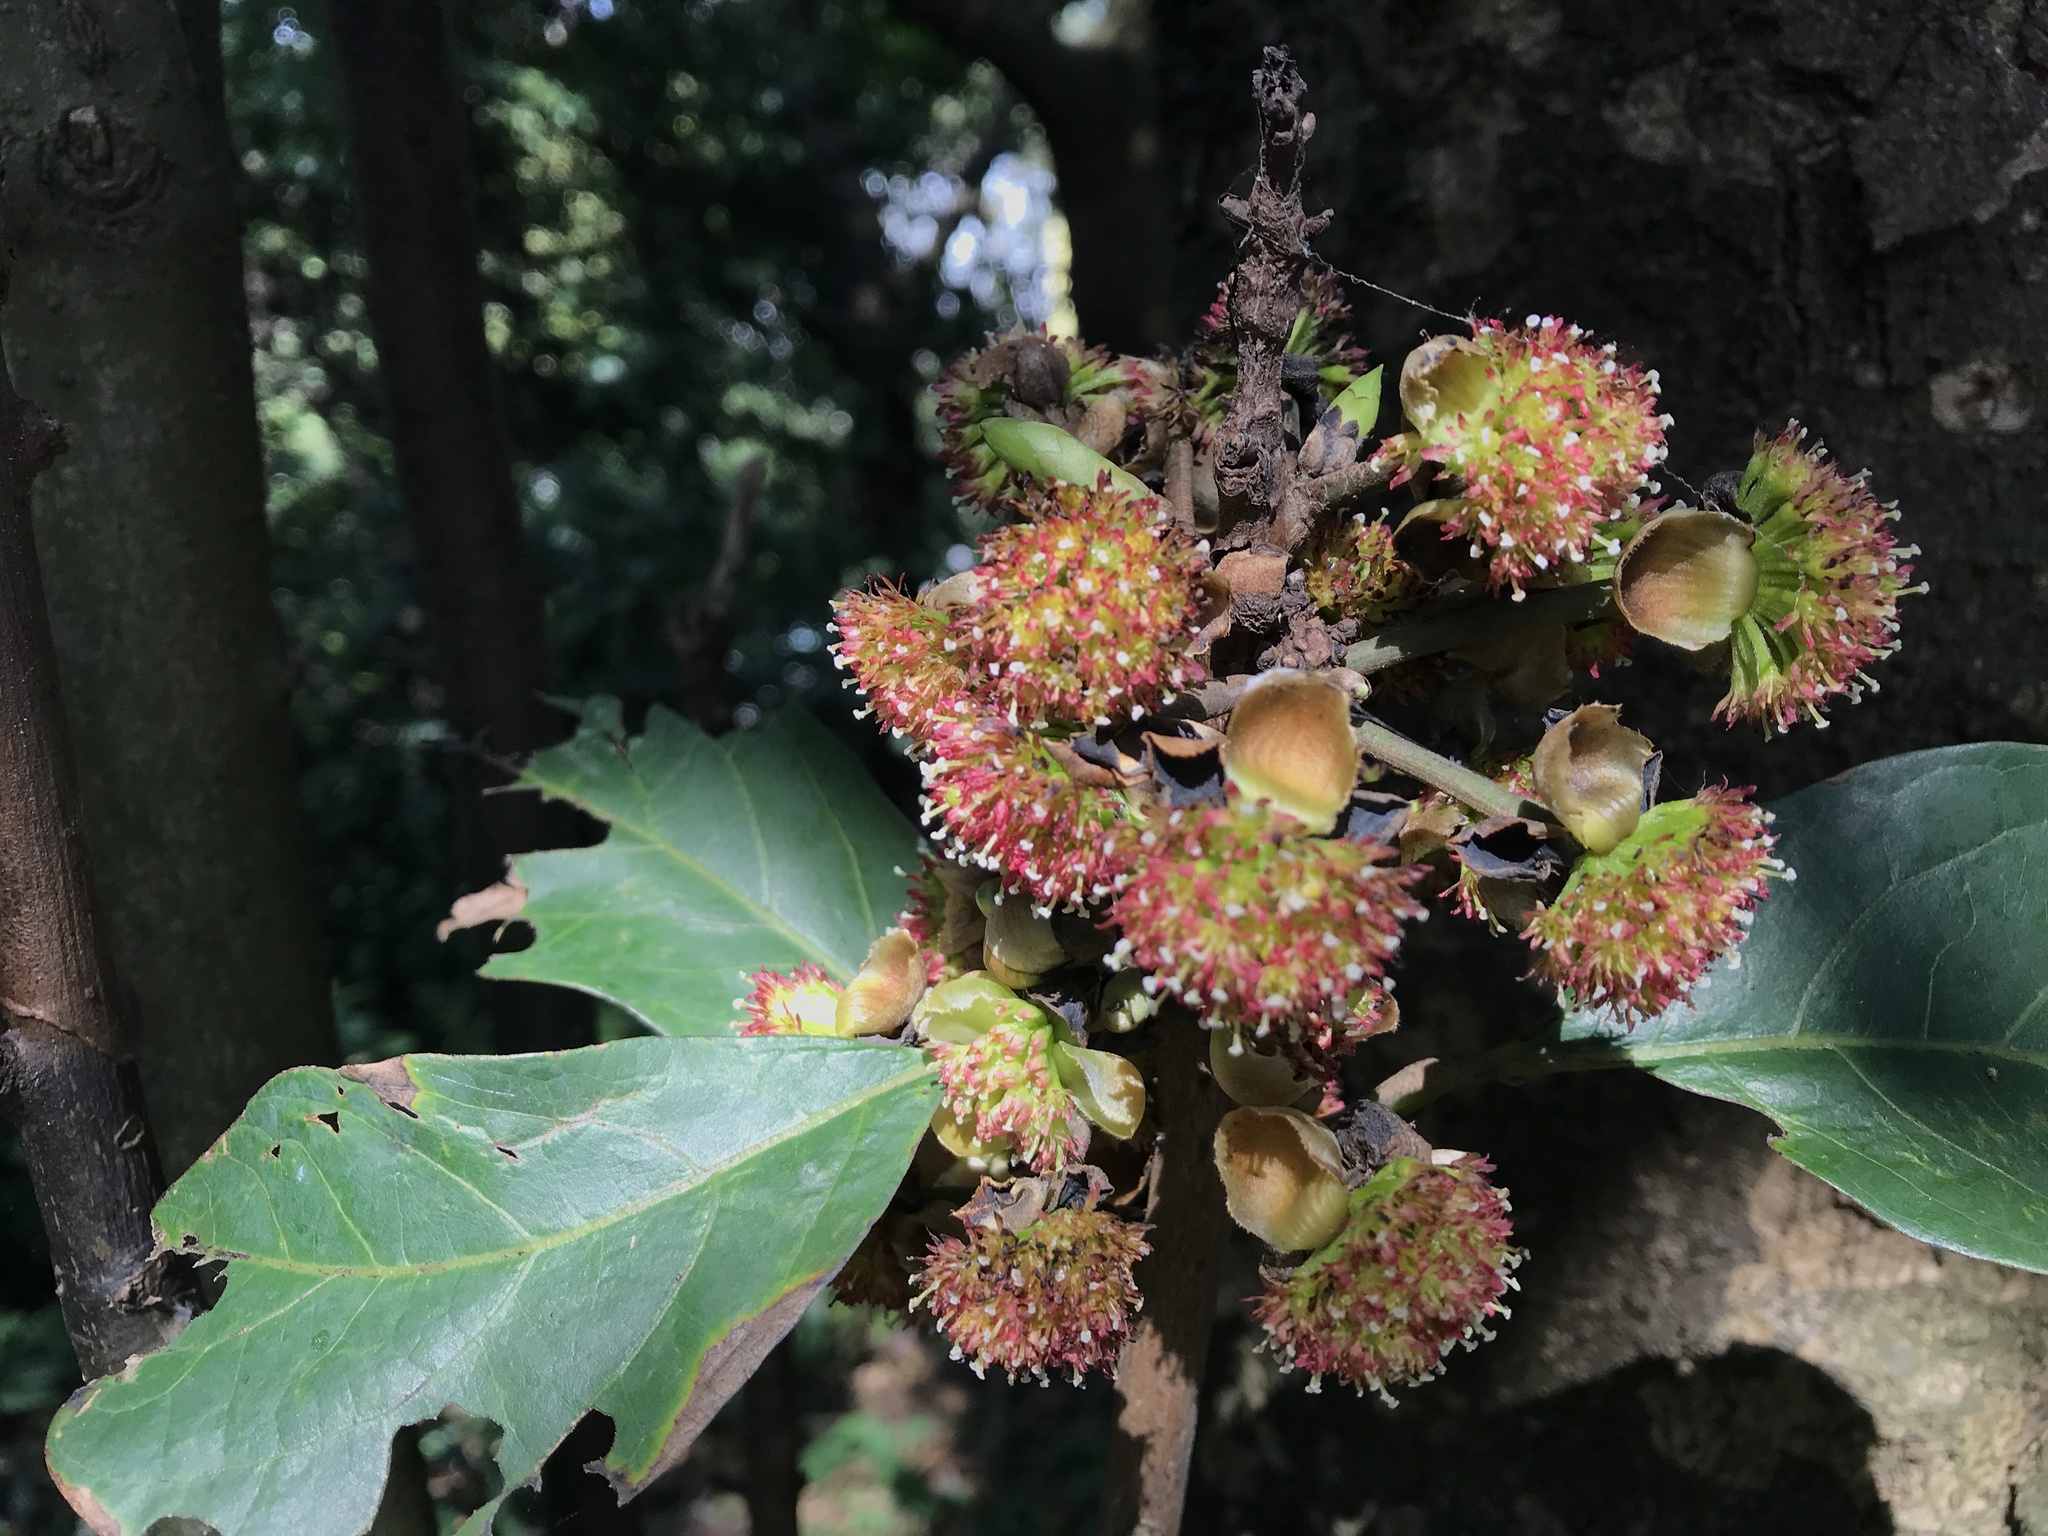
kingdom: Plantae
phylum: Tracheophyta
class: Magnoliopsida
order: Laurales
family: Lauraceae
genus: Lindera
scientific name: Lindera megaphylla
